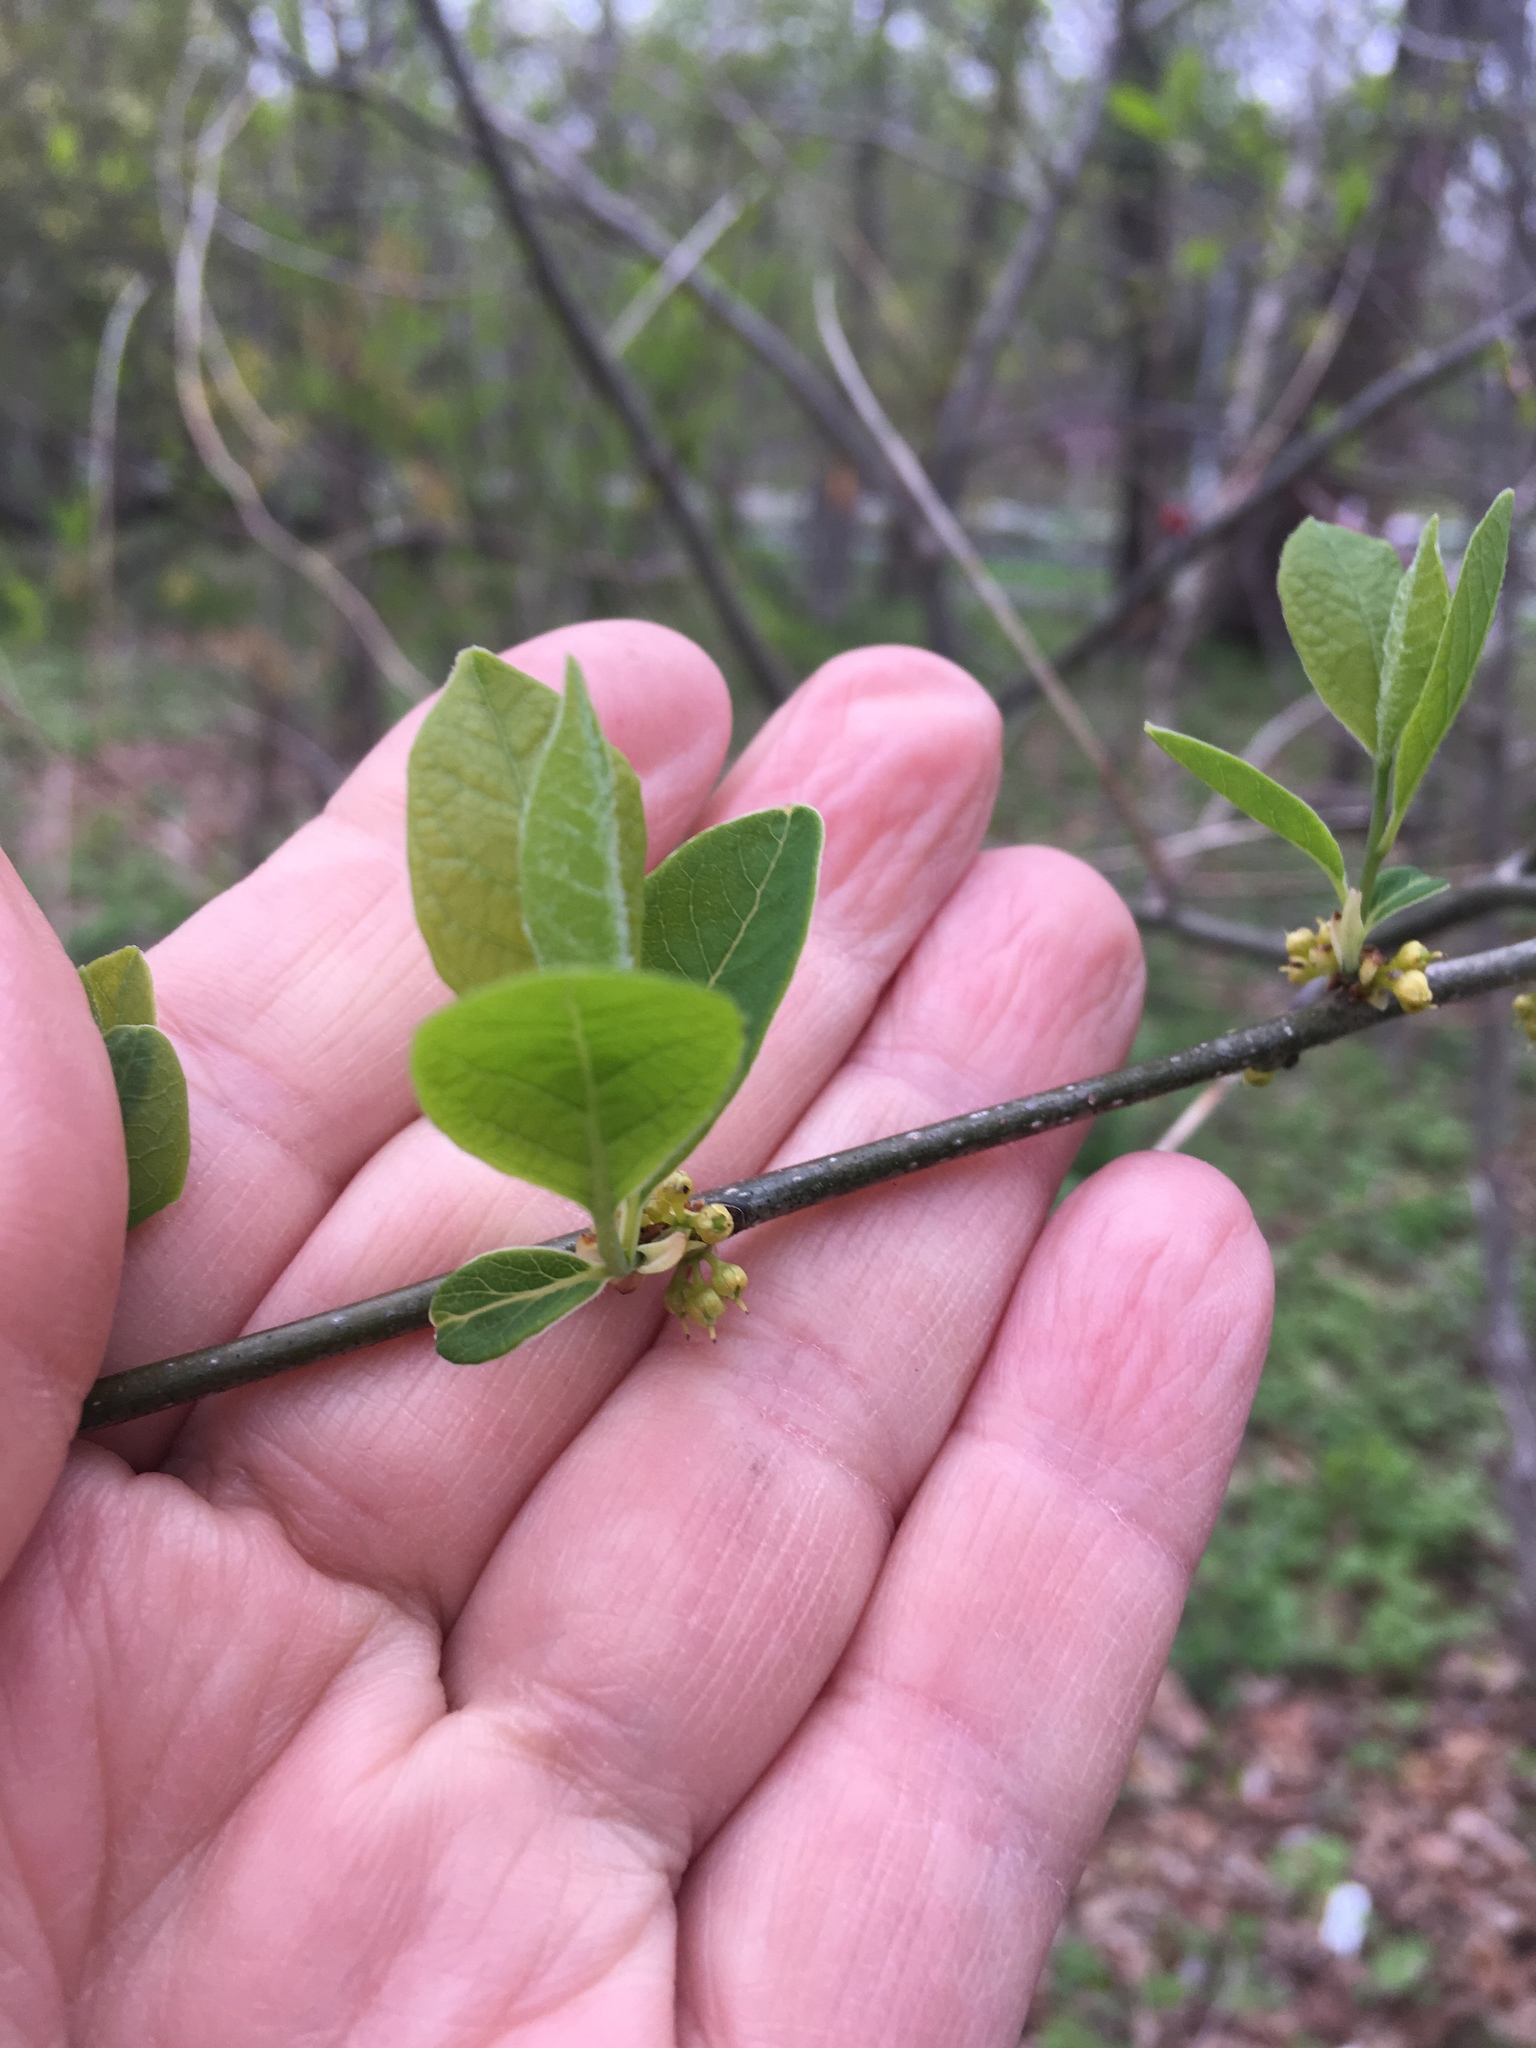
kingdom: Plantae
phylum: Tracheophyta
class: Magnoliopsida
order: Celastrales
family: Celastraceae
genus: Celastrus
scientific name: Celastrus orbiculatus
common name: Oriental bittersweet
